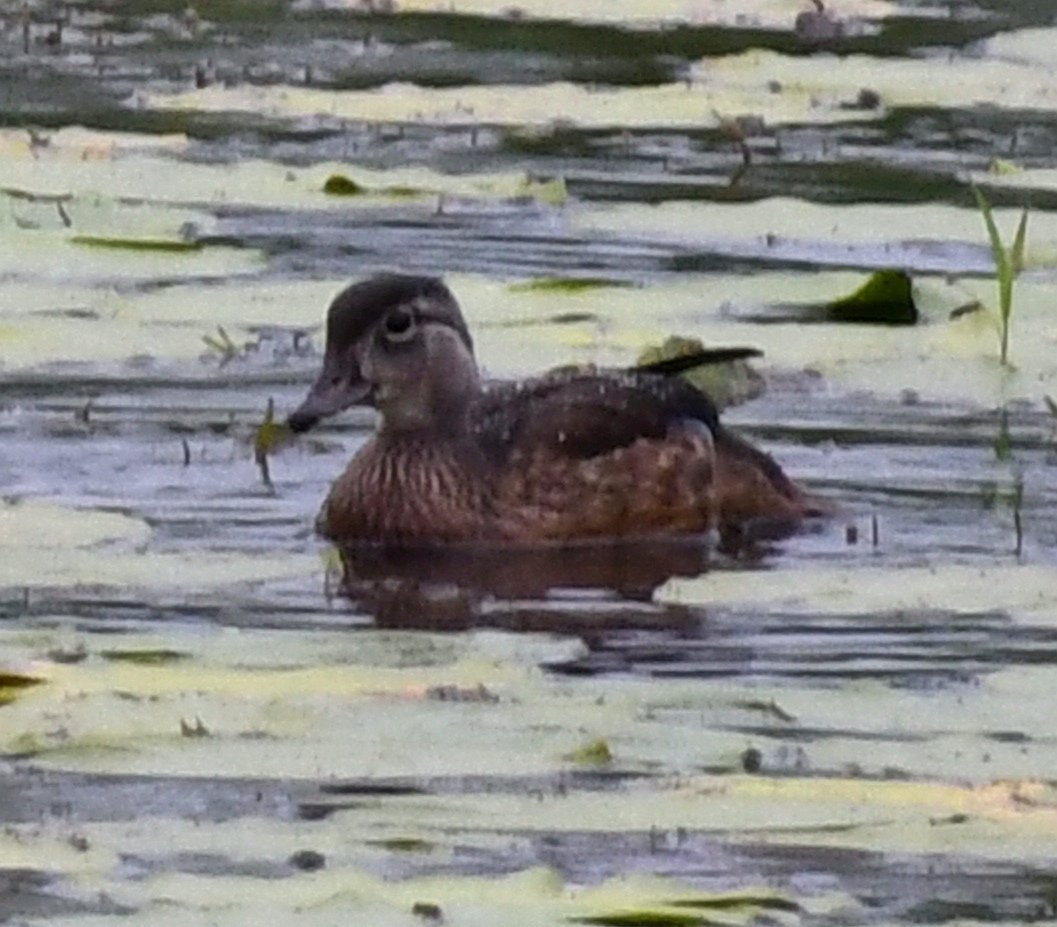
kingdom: Animalia
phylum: Chordata
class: Aves
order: Anseriformes
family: Anatidae
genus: Aix
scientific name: Aix sponsa
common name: Wood duck
